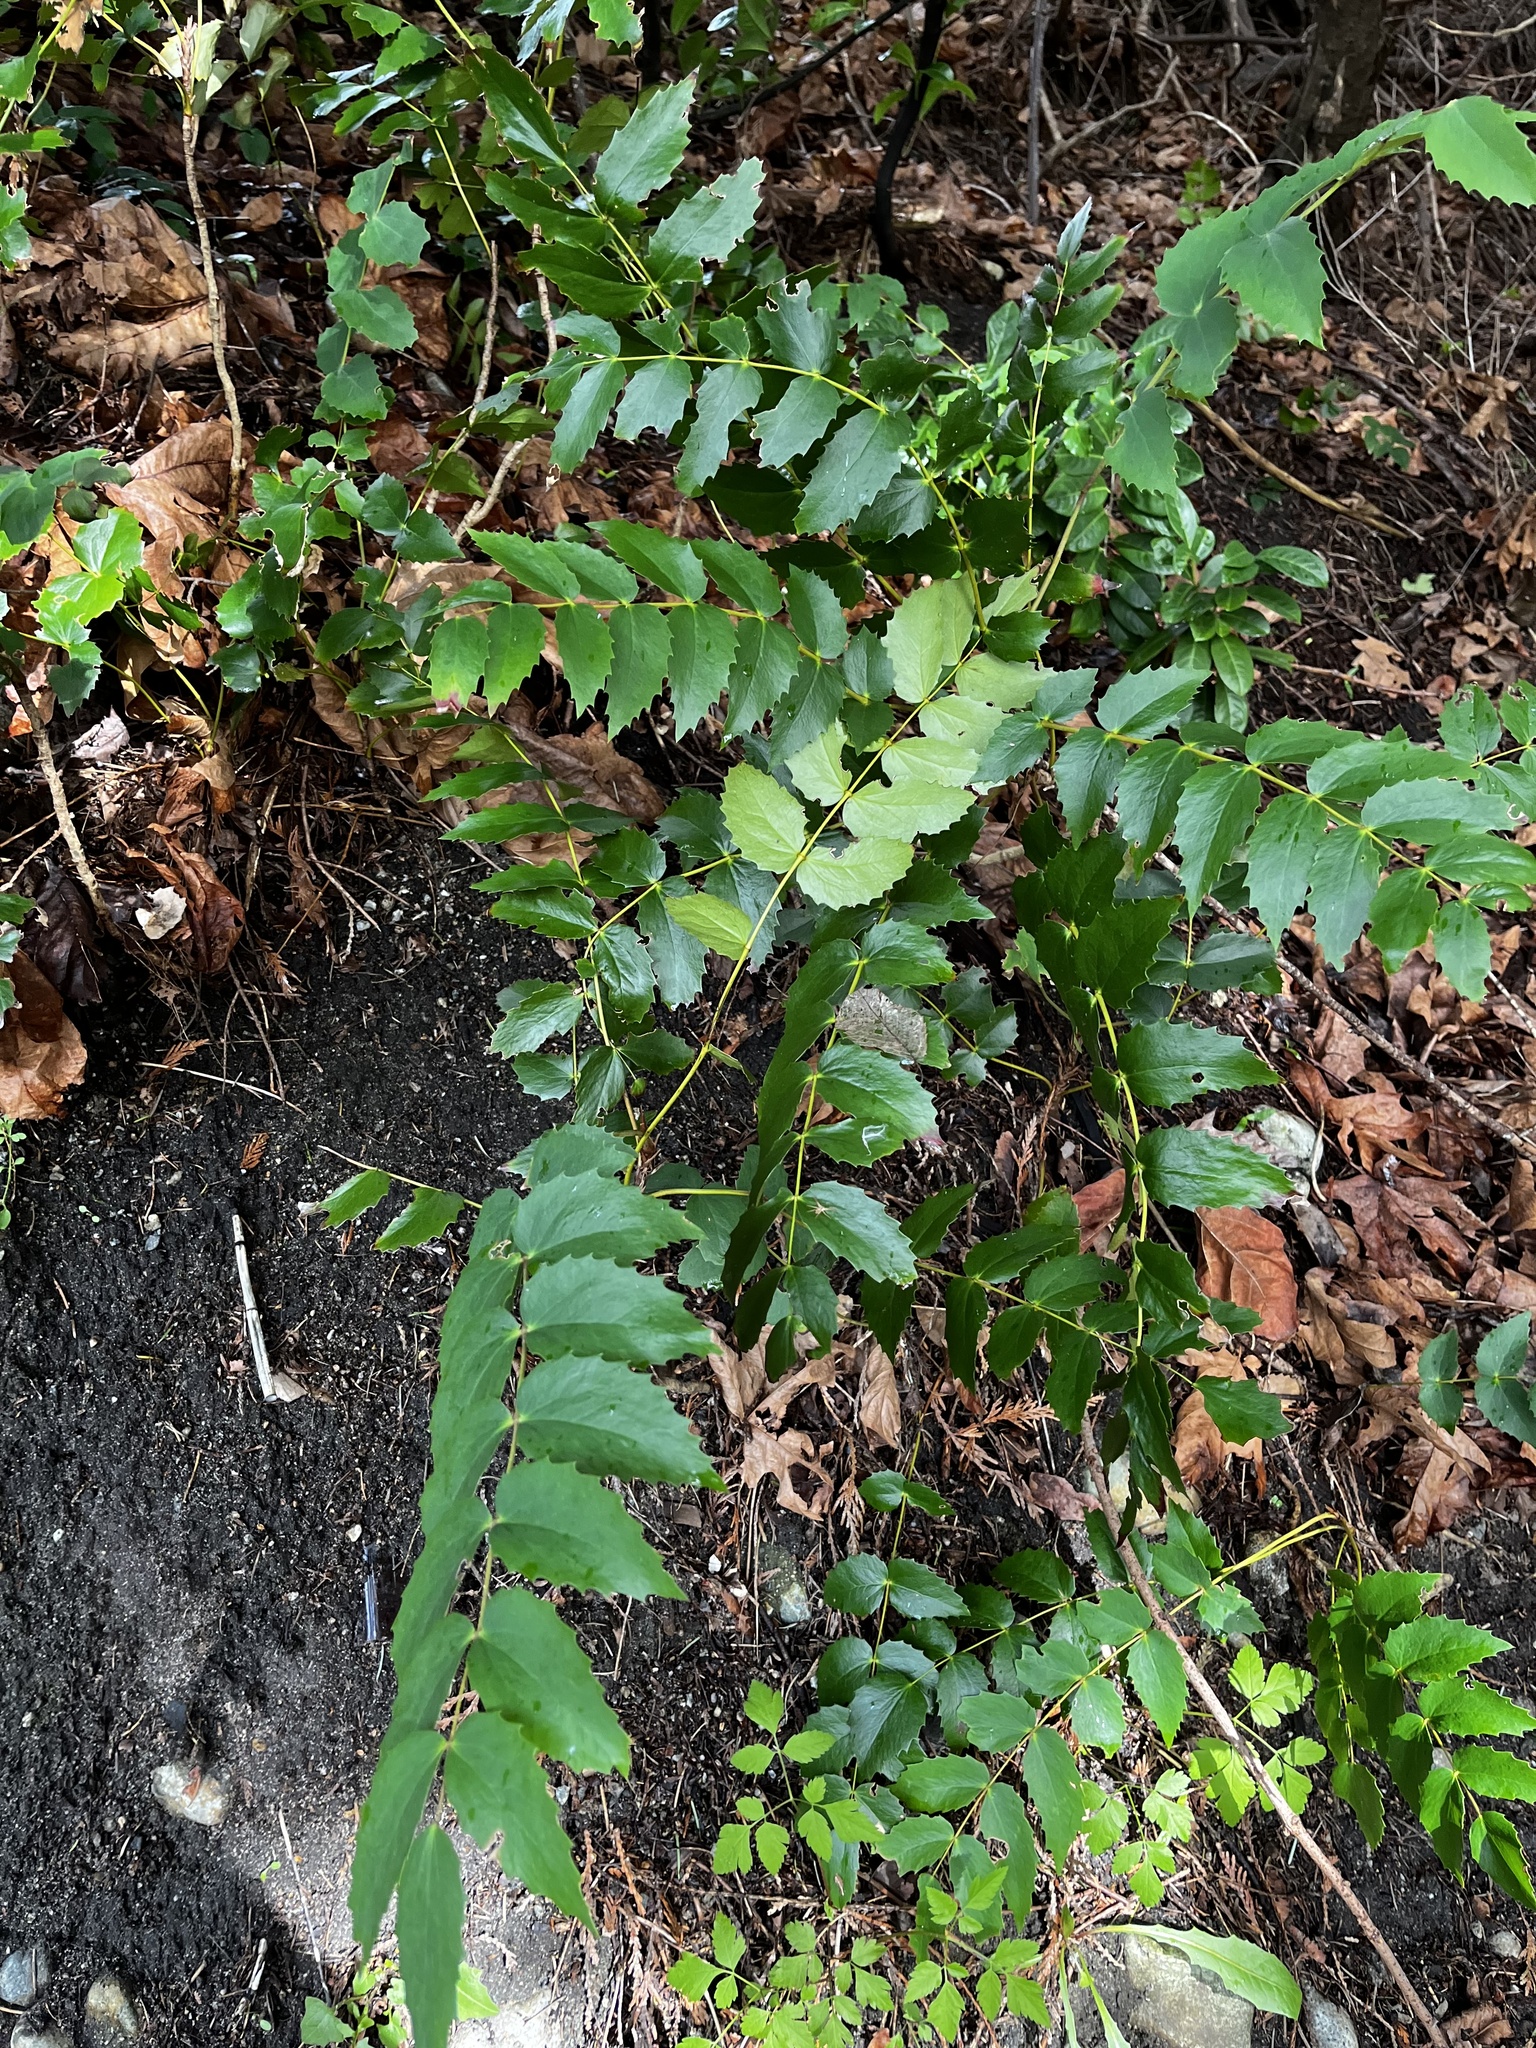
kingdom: Plantae
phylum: Tracheophyta
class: Magnoliopsida
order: Ranunculales
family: Berberidaceae
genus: Mahonia
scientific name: Mahonia nervosa
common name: Cascade oregon-grape
